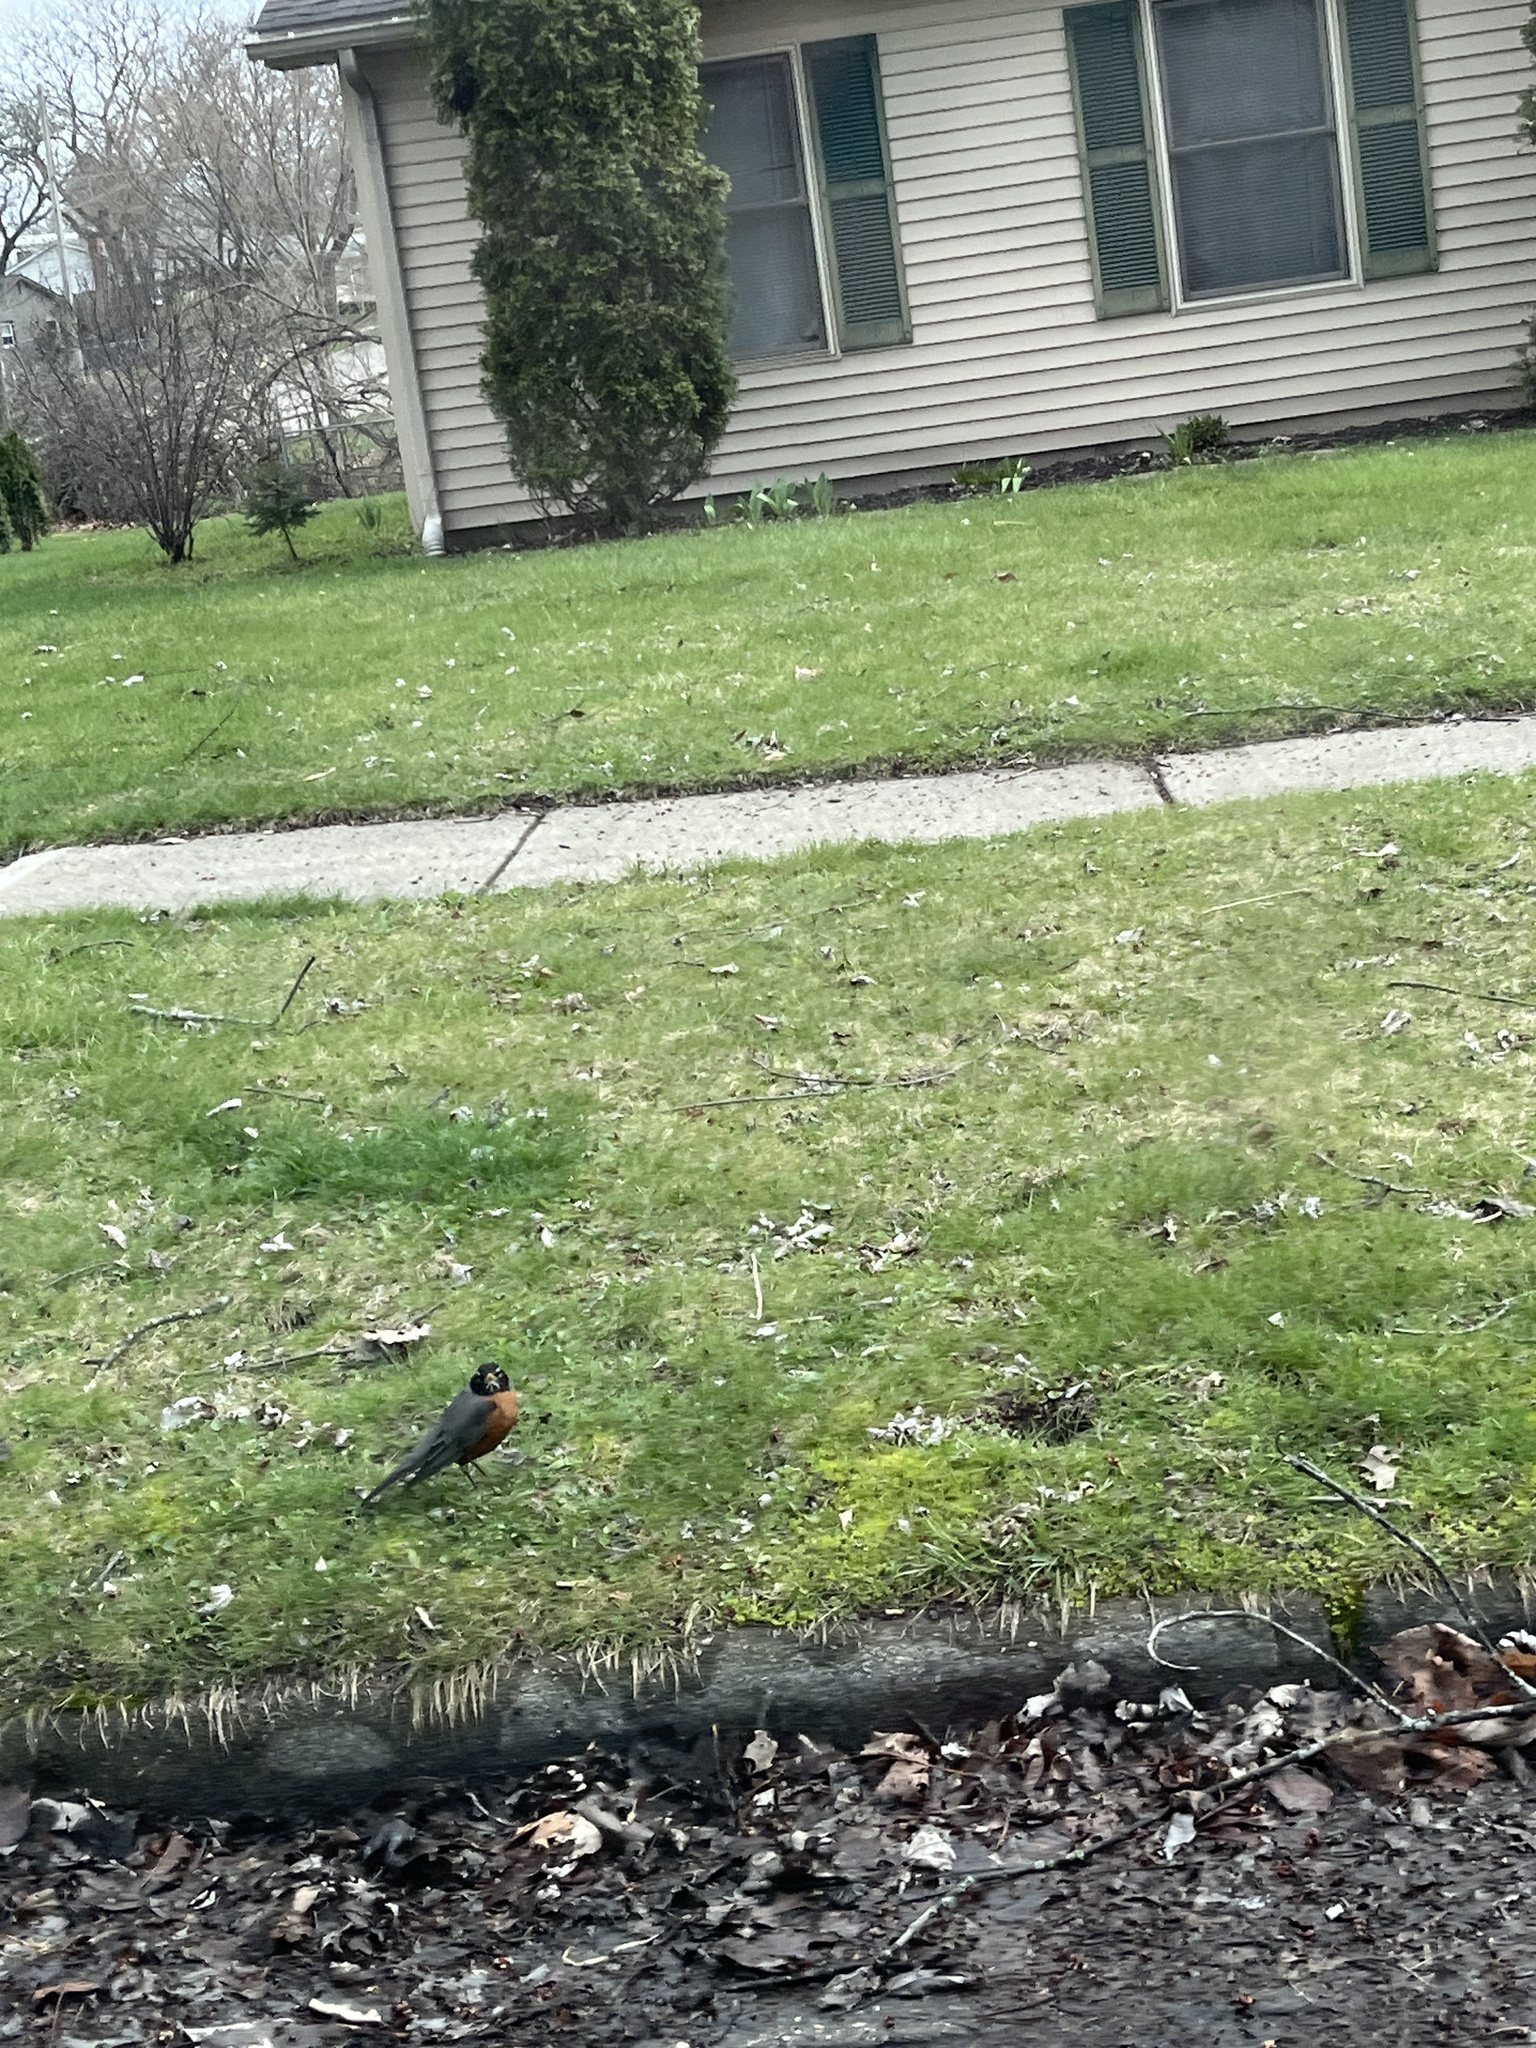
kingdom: Animalia
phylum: Chordata
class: Aves
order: Passeriformes
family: Turdidae
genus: Turdus
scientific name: Turdus migratorius
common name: American robin
